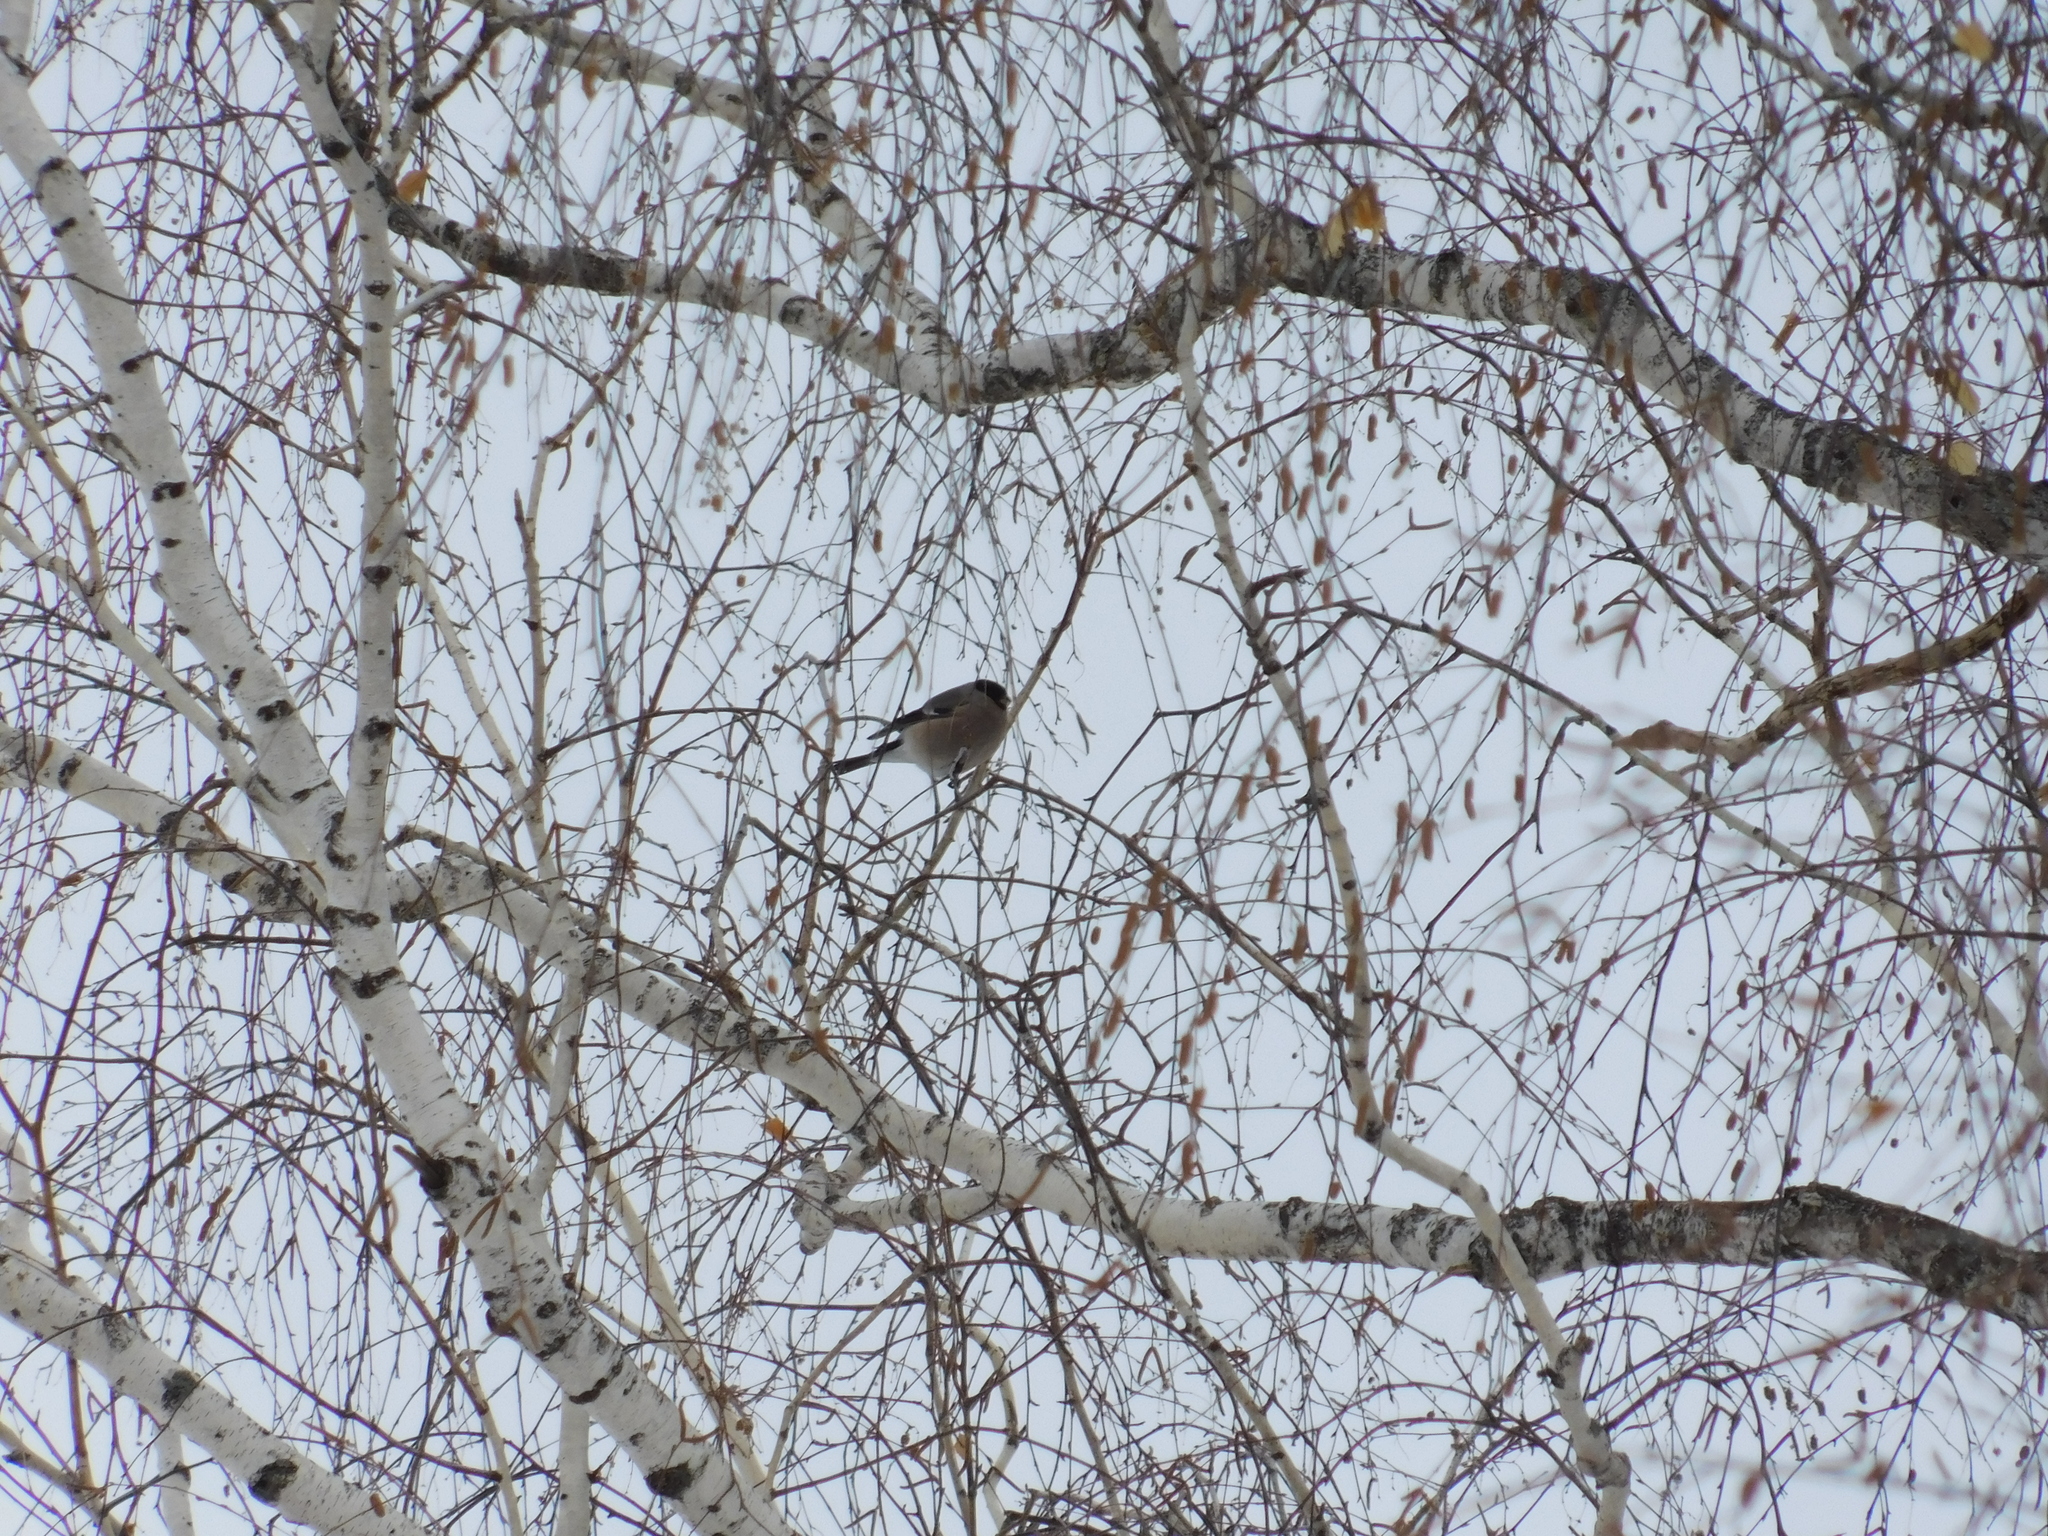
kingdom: Animalia
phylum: Chordata
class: Aves
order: Passeriformes
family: Fringillidae
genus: Pyrrhula
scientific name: Pyrrhula pyrrhula
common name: Eurasian bullfinch
